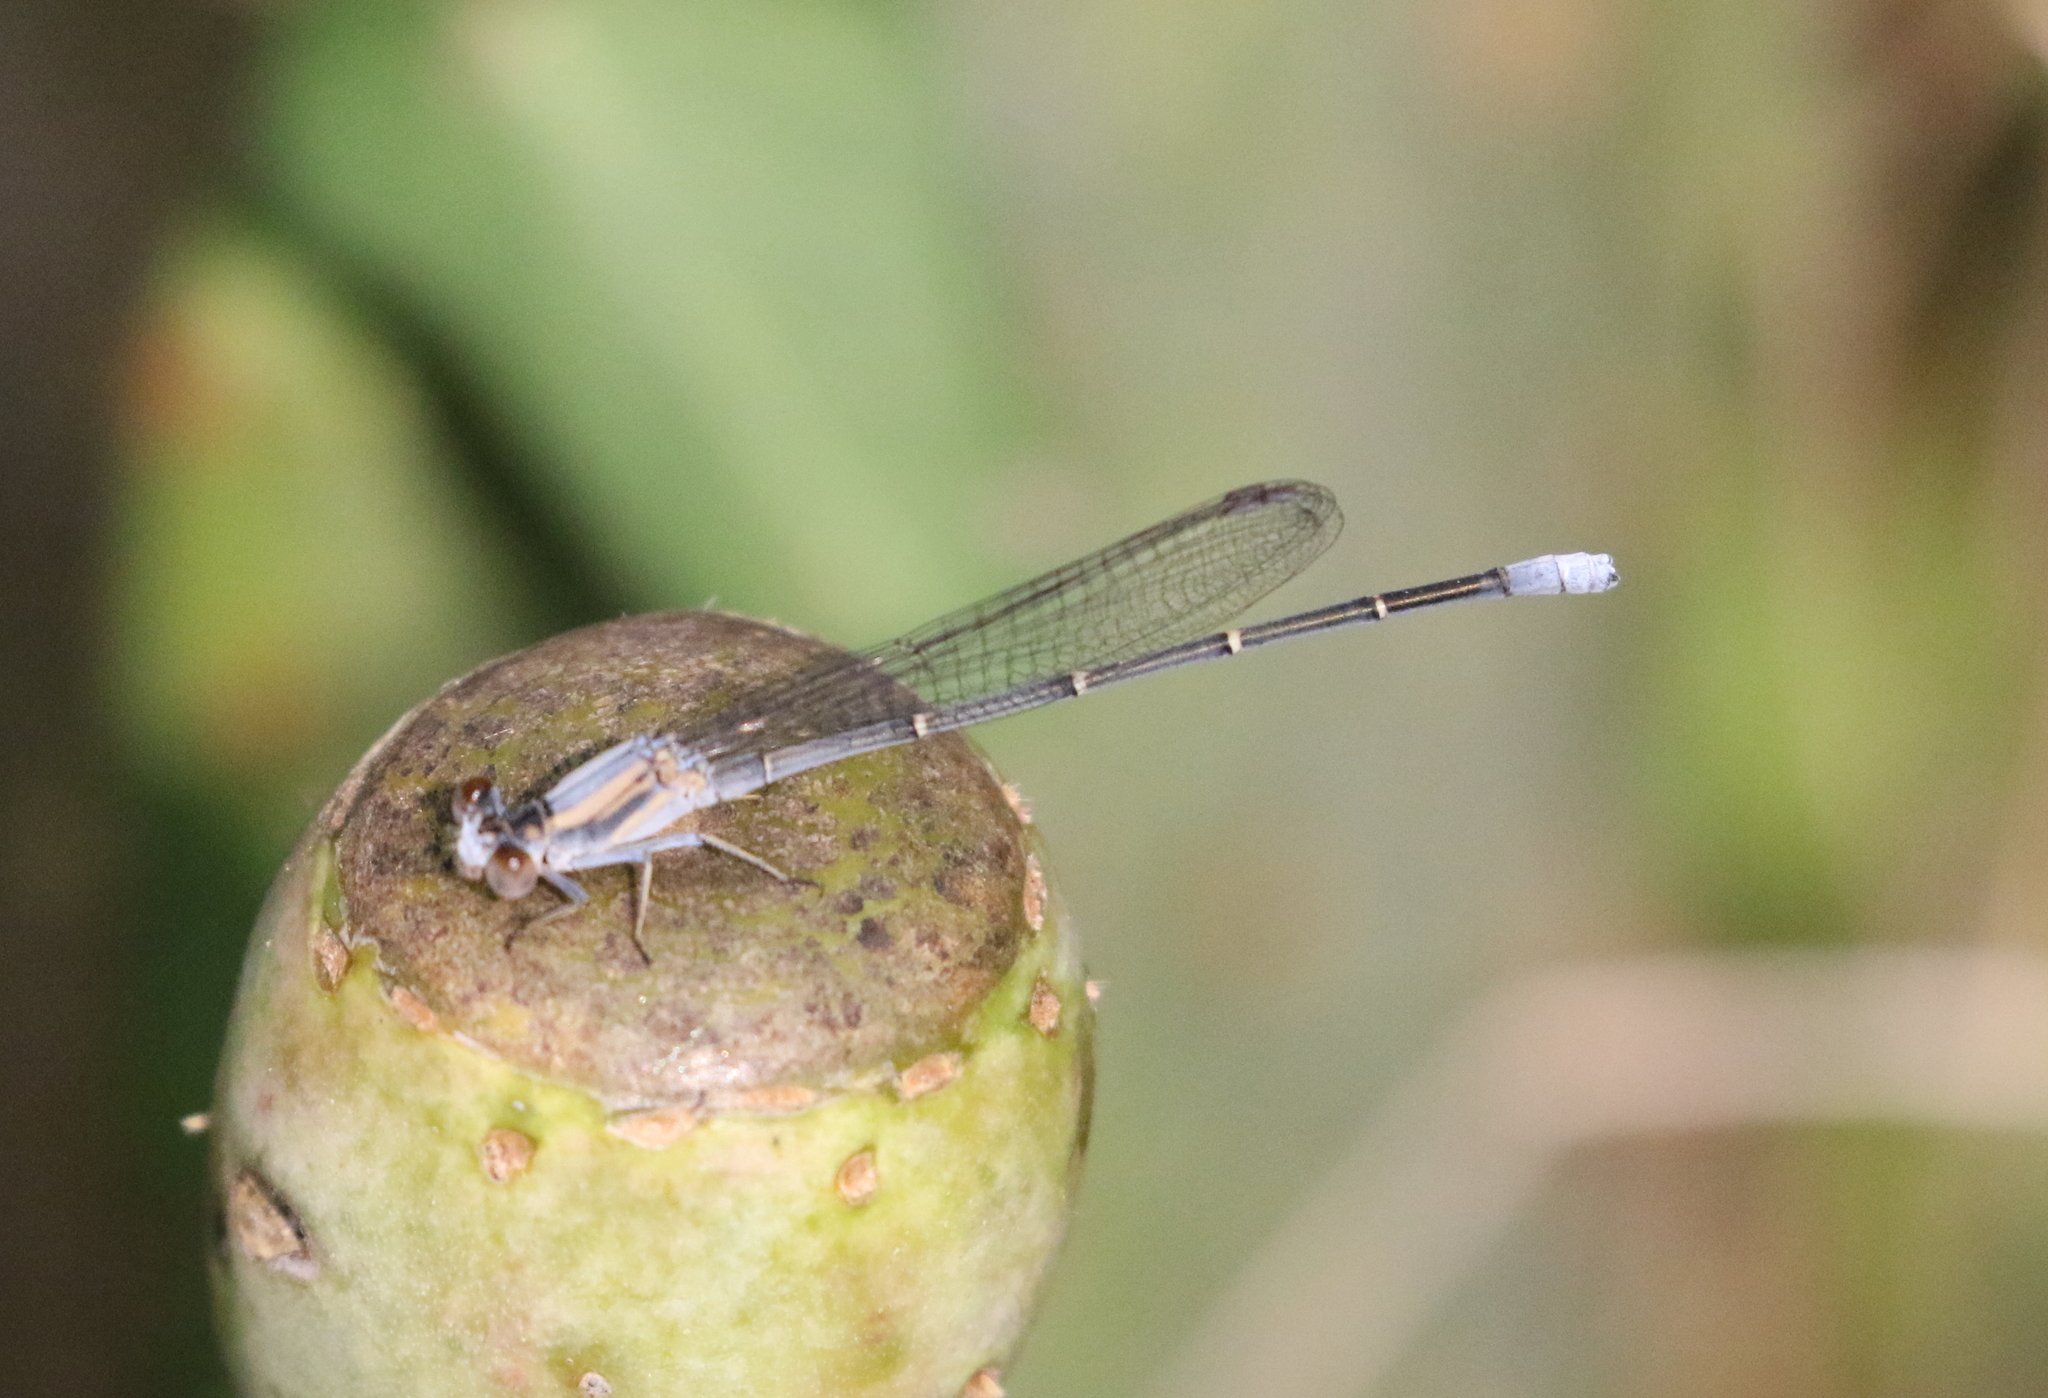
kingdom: Animalia
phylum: Arthropoda
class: Insecta
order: Odonata
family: Coenagrionidae
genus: Argia
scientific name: Argia moesta
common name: Powdered dancer
